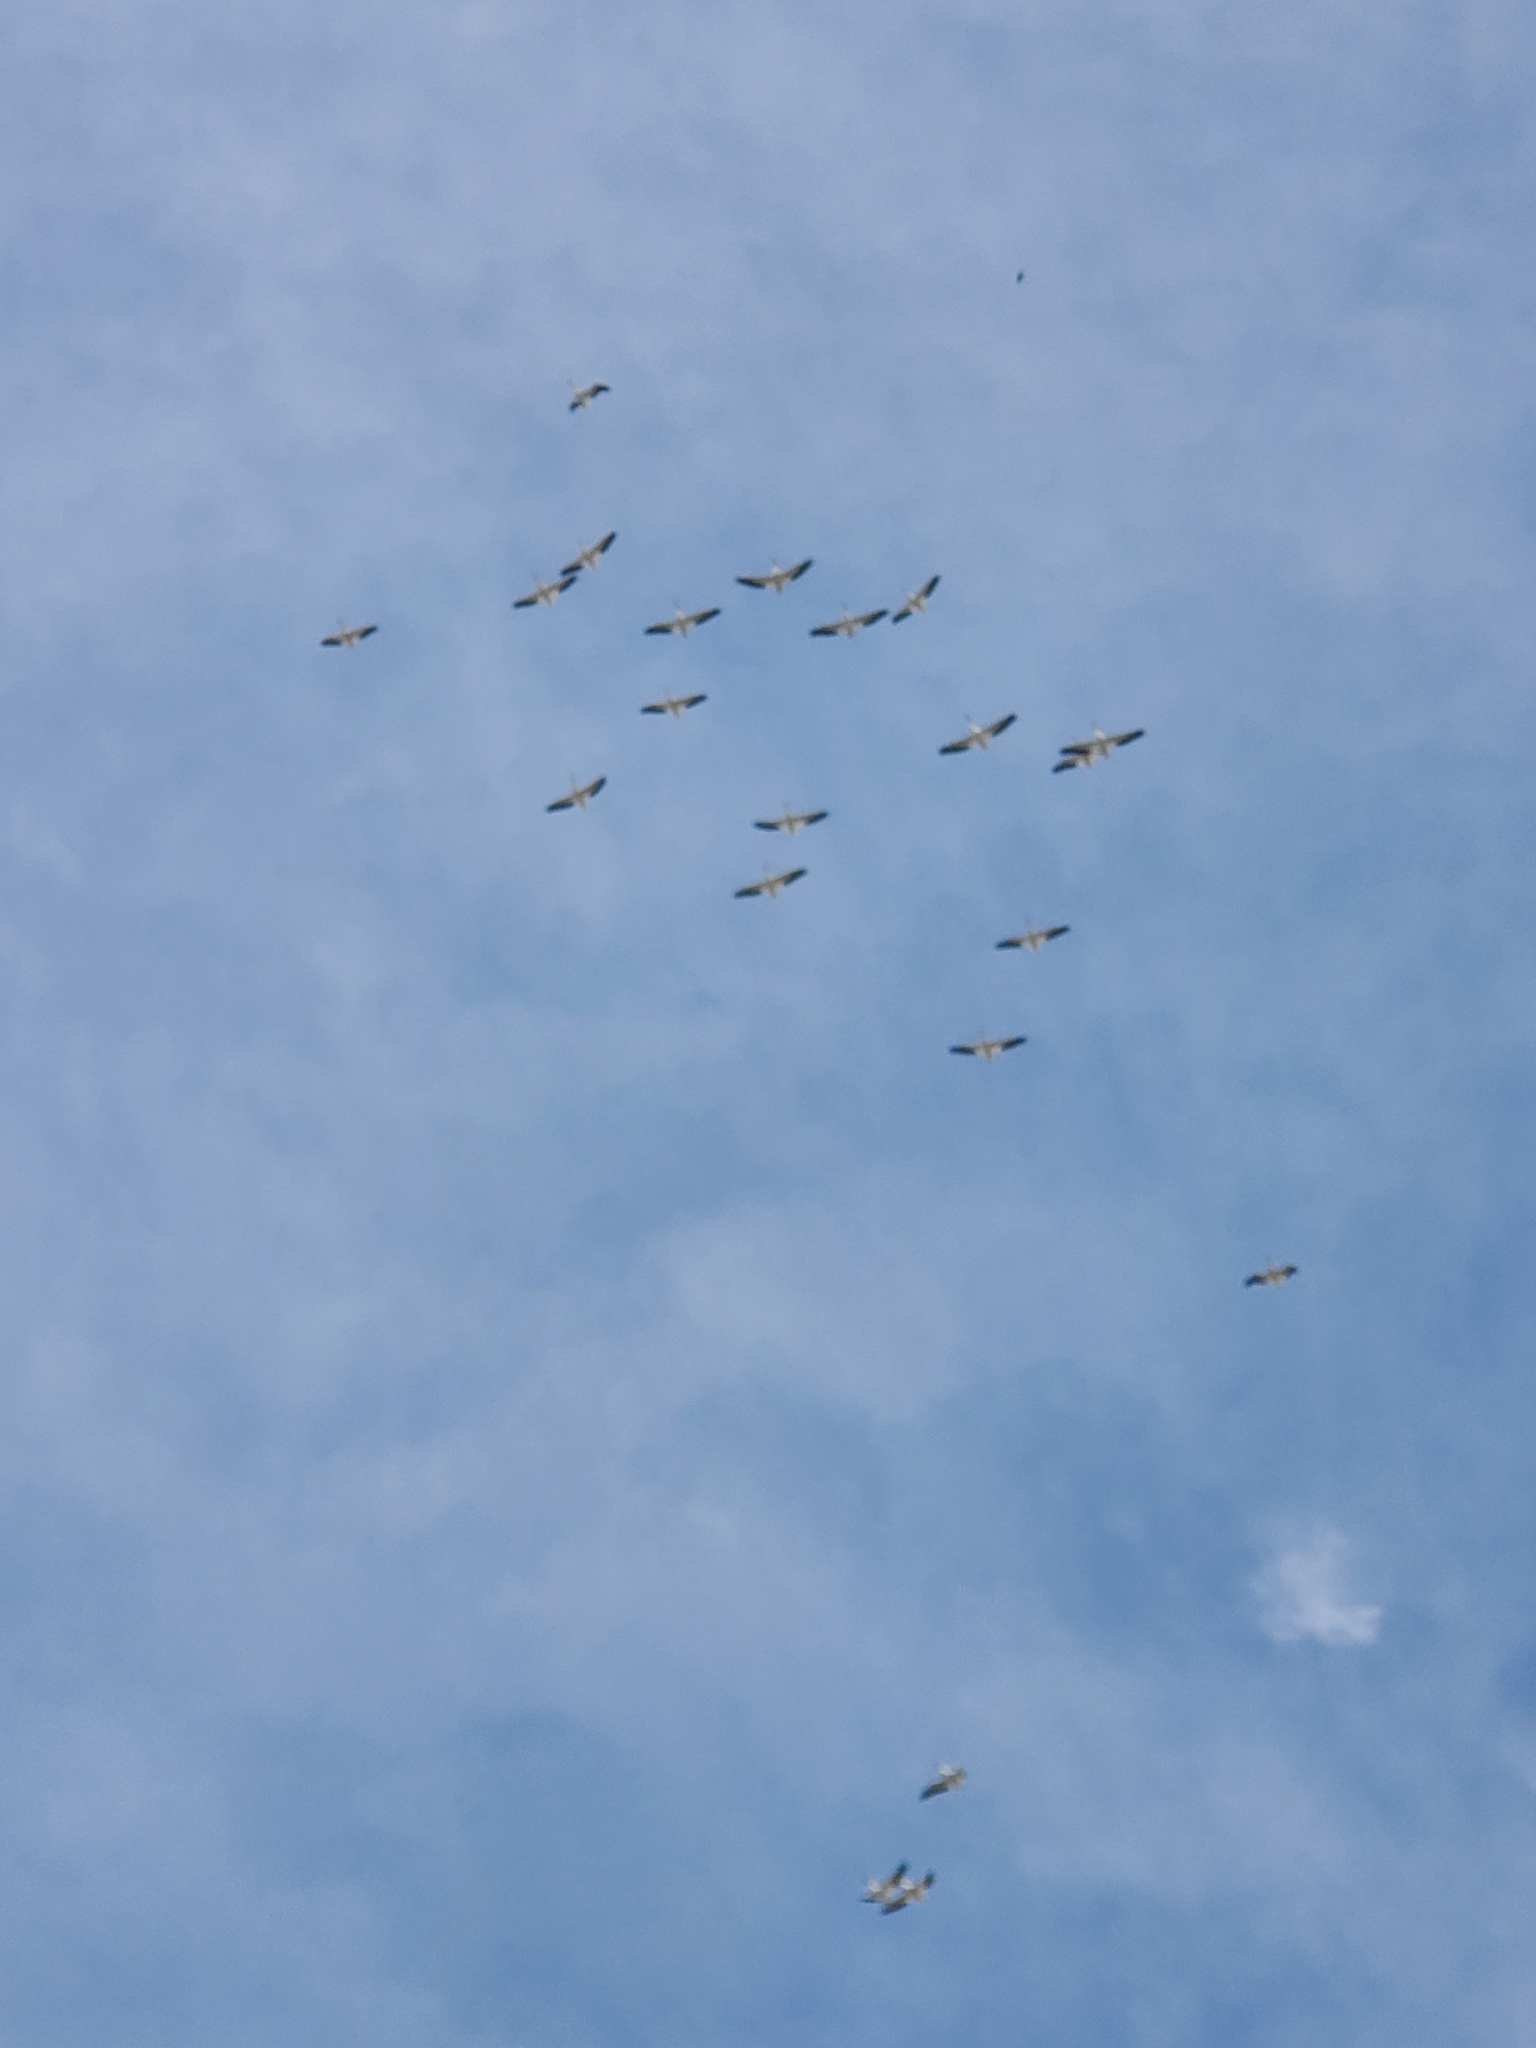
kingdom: Animalia
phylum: Chordata
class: Aves
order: Pelecaniformes
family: Pelecanidae
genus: Pelecanus
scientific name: Pelecanus erythrorhynchos
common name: American white pelican
